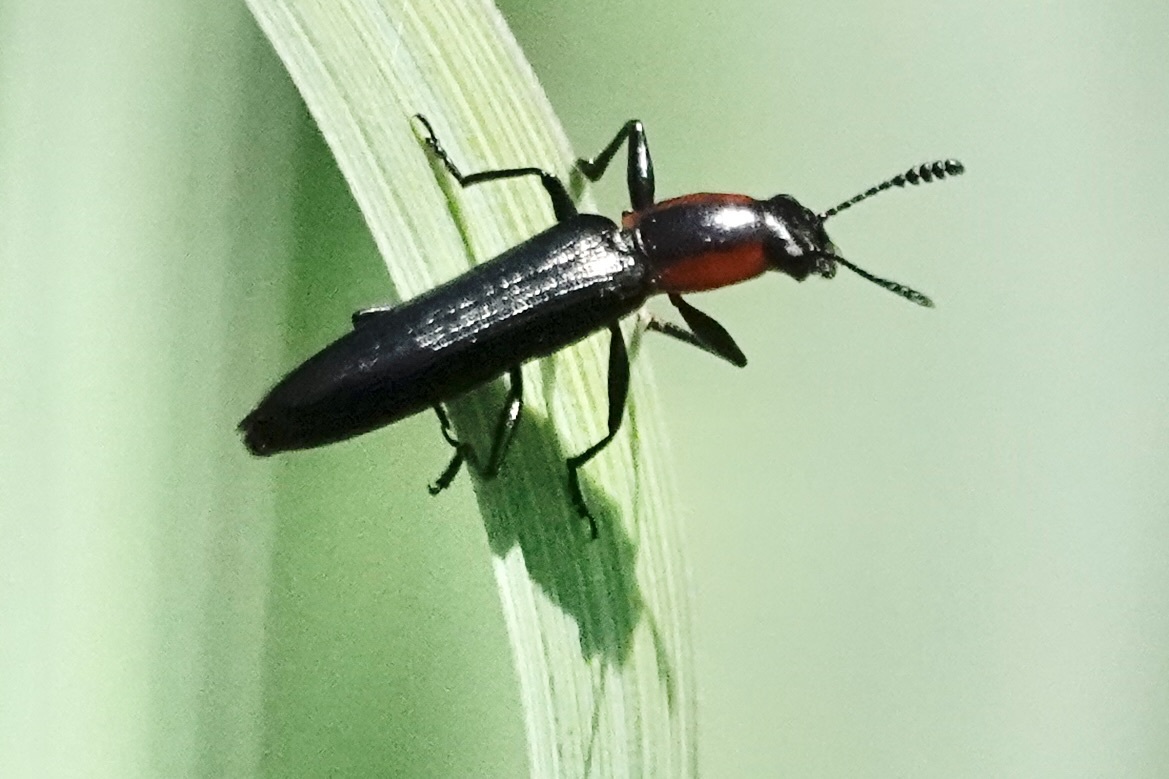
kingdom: Animalia
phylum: Arthropoda
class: Insecta
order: Coleoptera
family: Erotylidae
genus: Acropteroxys
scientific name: Acropteroxys gracilis
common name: Slender lizard beetle
